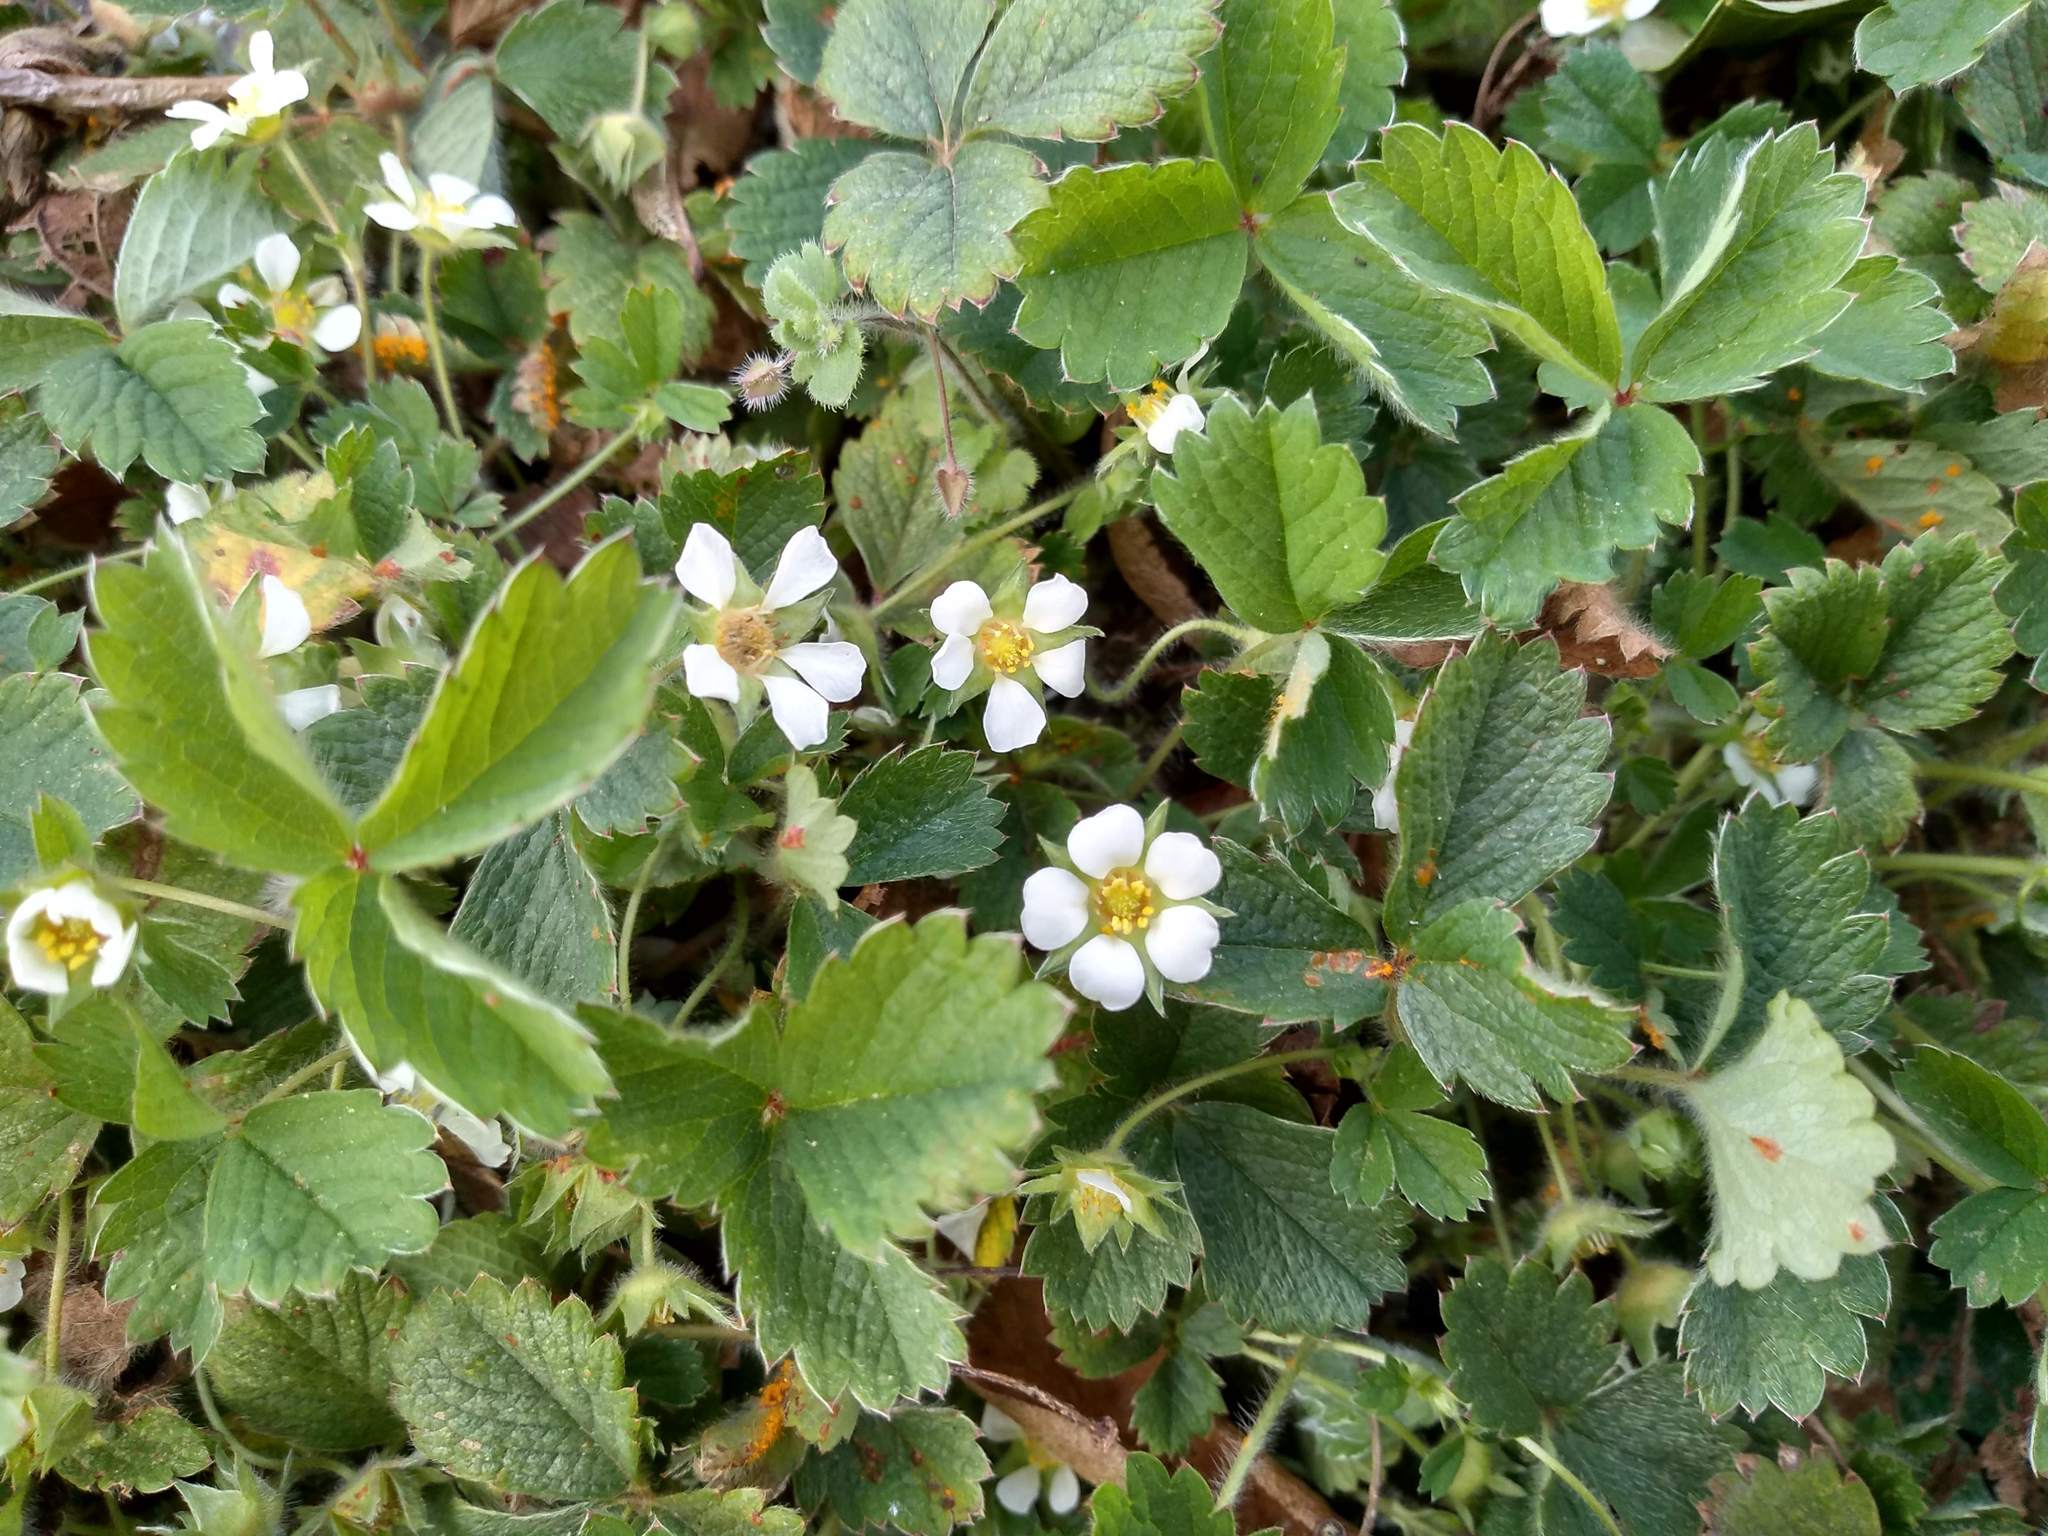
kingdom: Plantae
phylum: Tracheophyta
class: Magnoliopsida
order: Rosales
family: Rosaceae
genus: Potentilla
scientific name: Potentilla sterilis
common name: Barren strawberry
